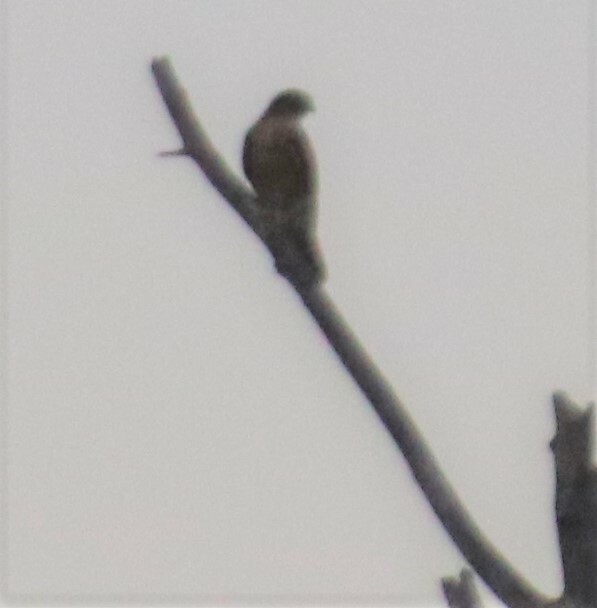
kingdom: Animalia
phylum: Chordata
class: Aves
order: Falconiformes
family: Falconidae
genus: Falco
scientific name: Falco columbarius
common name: Merlin
